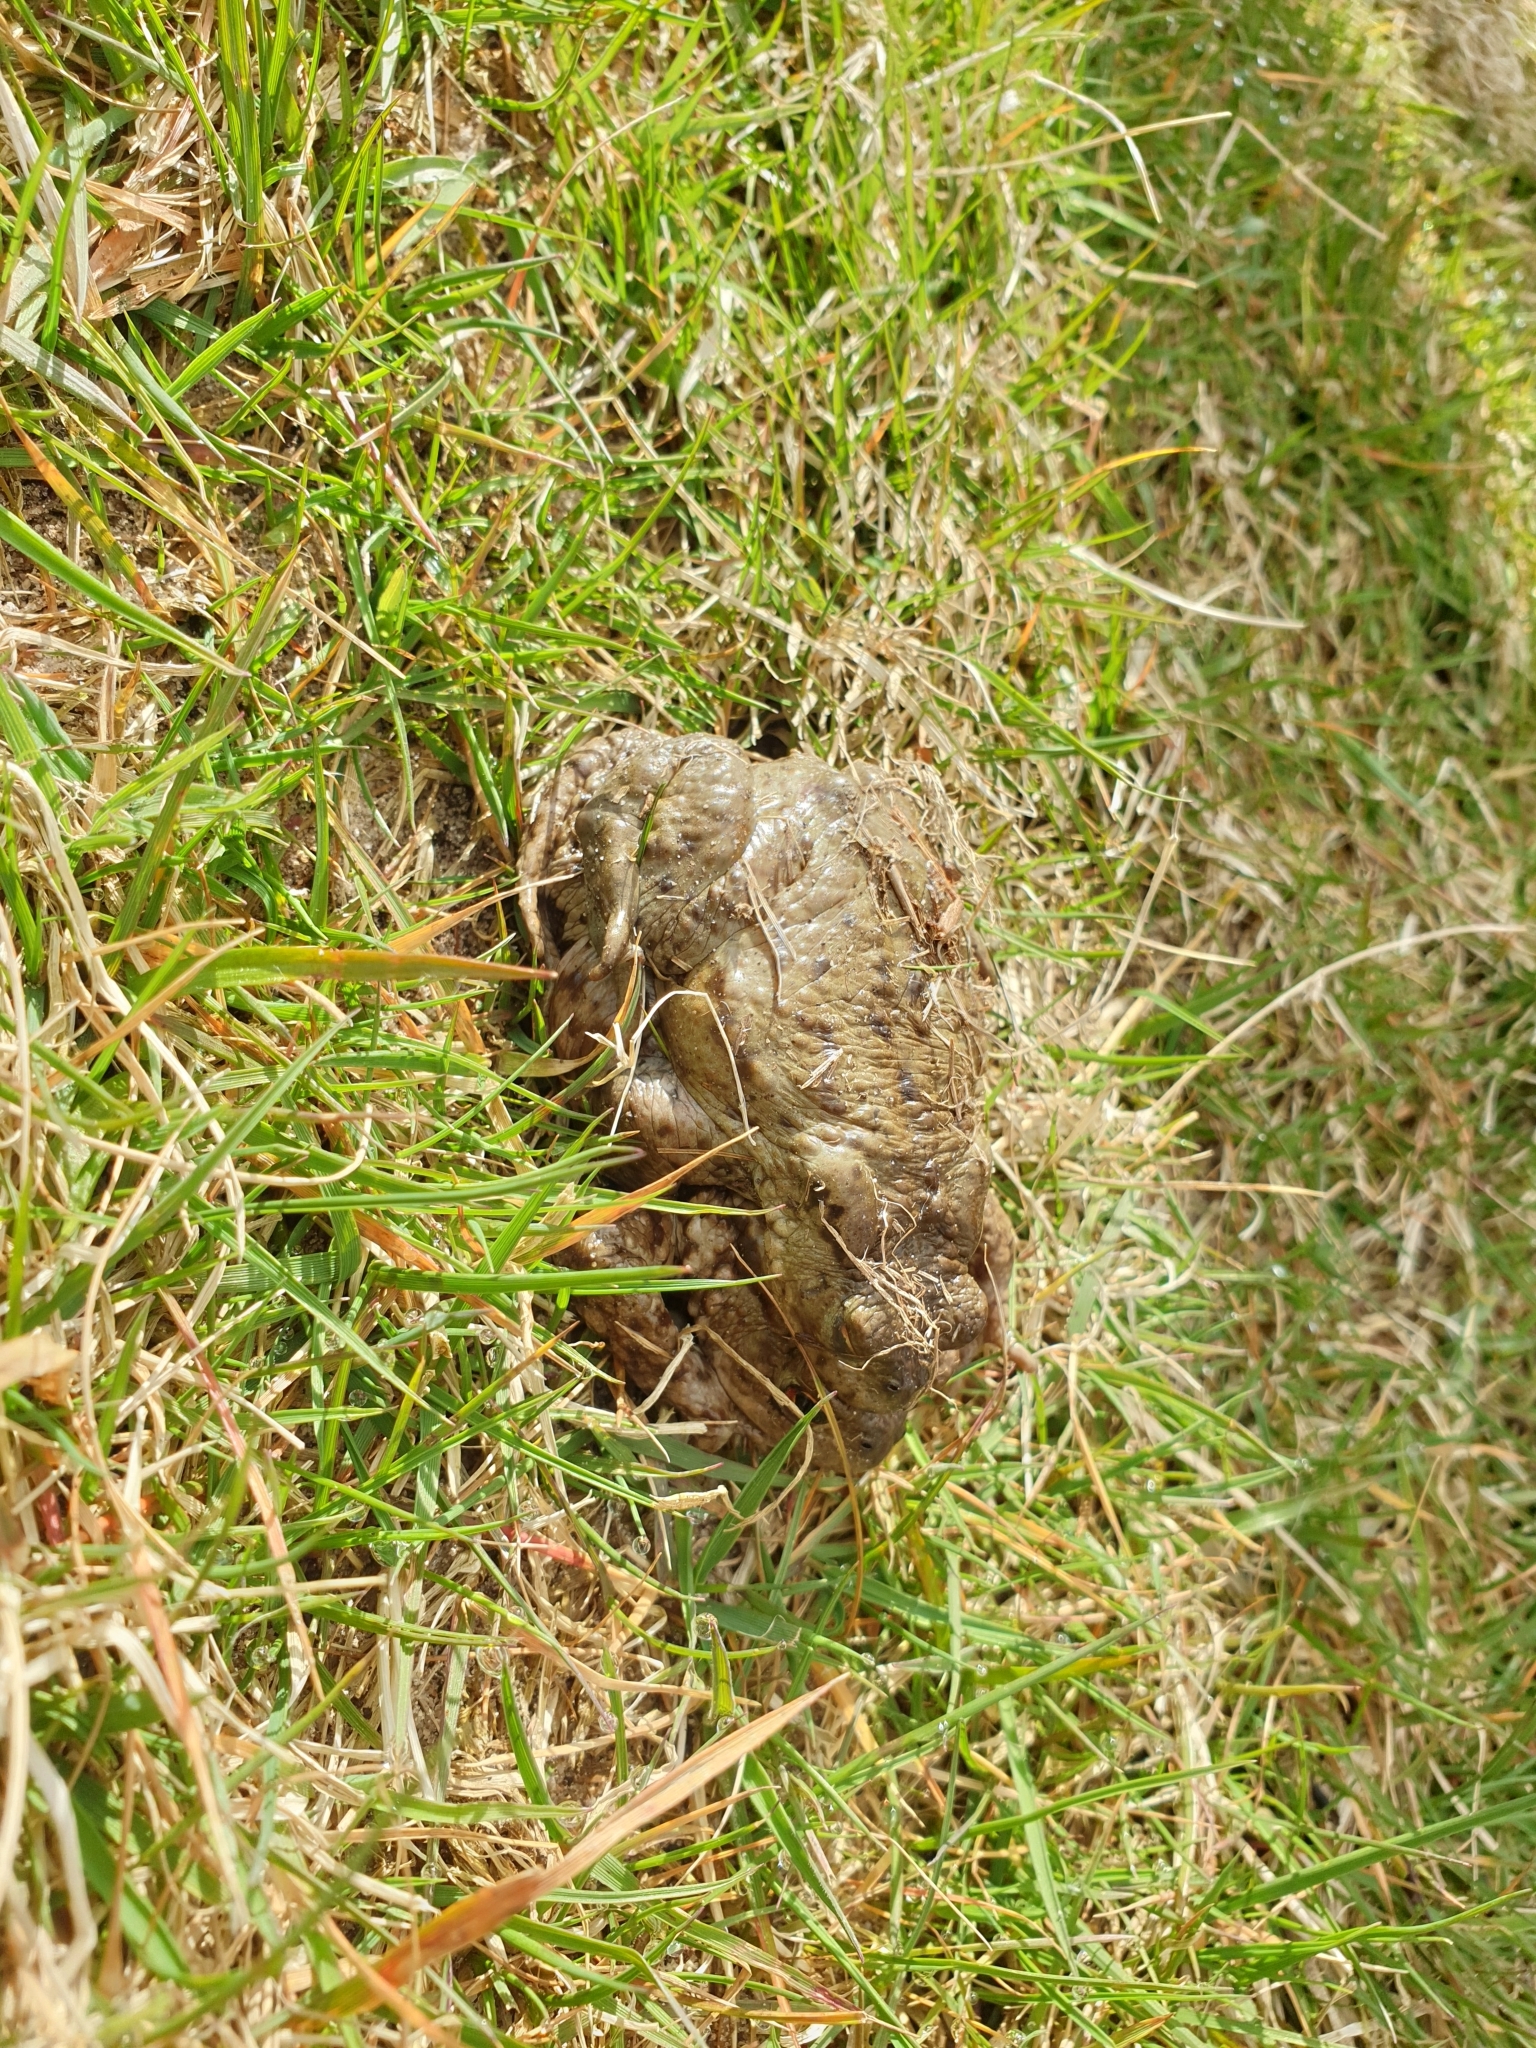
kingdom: Animalia
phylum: Chordata
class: Amphibia
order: Anura
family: Bufonidae
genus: Bufo
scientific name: Bufo bufo
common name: Common toad
